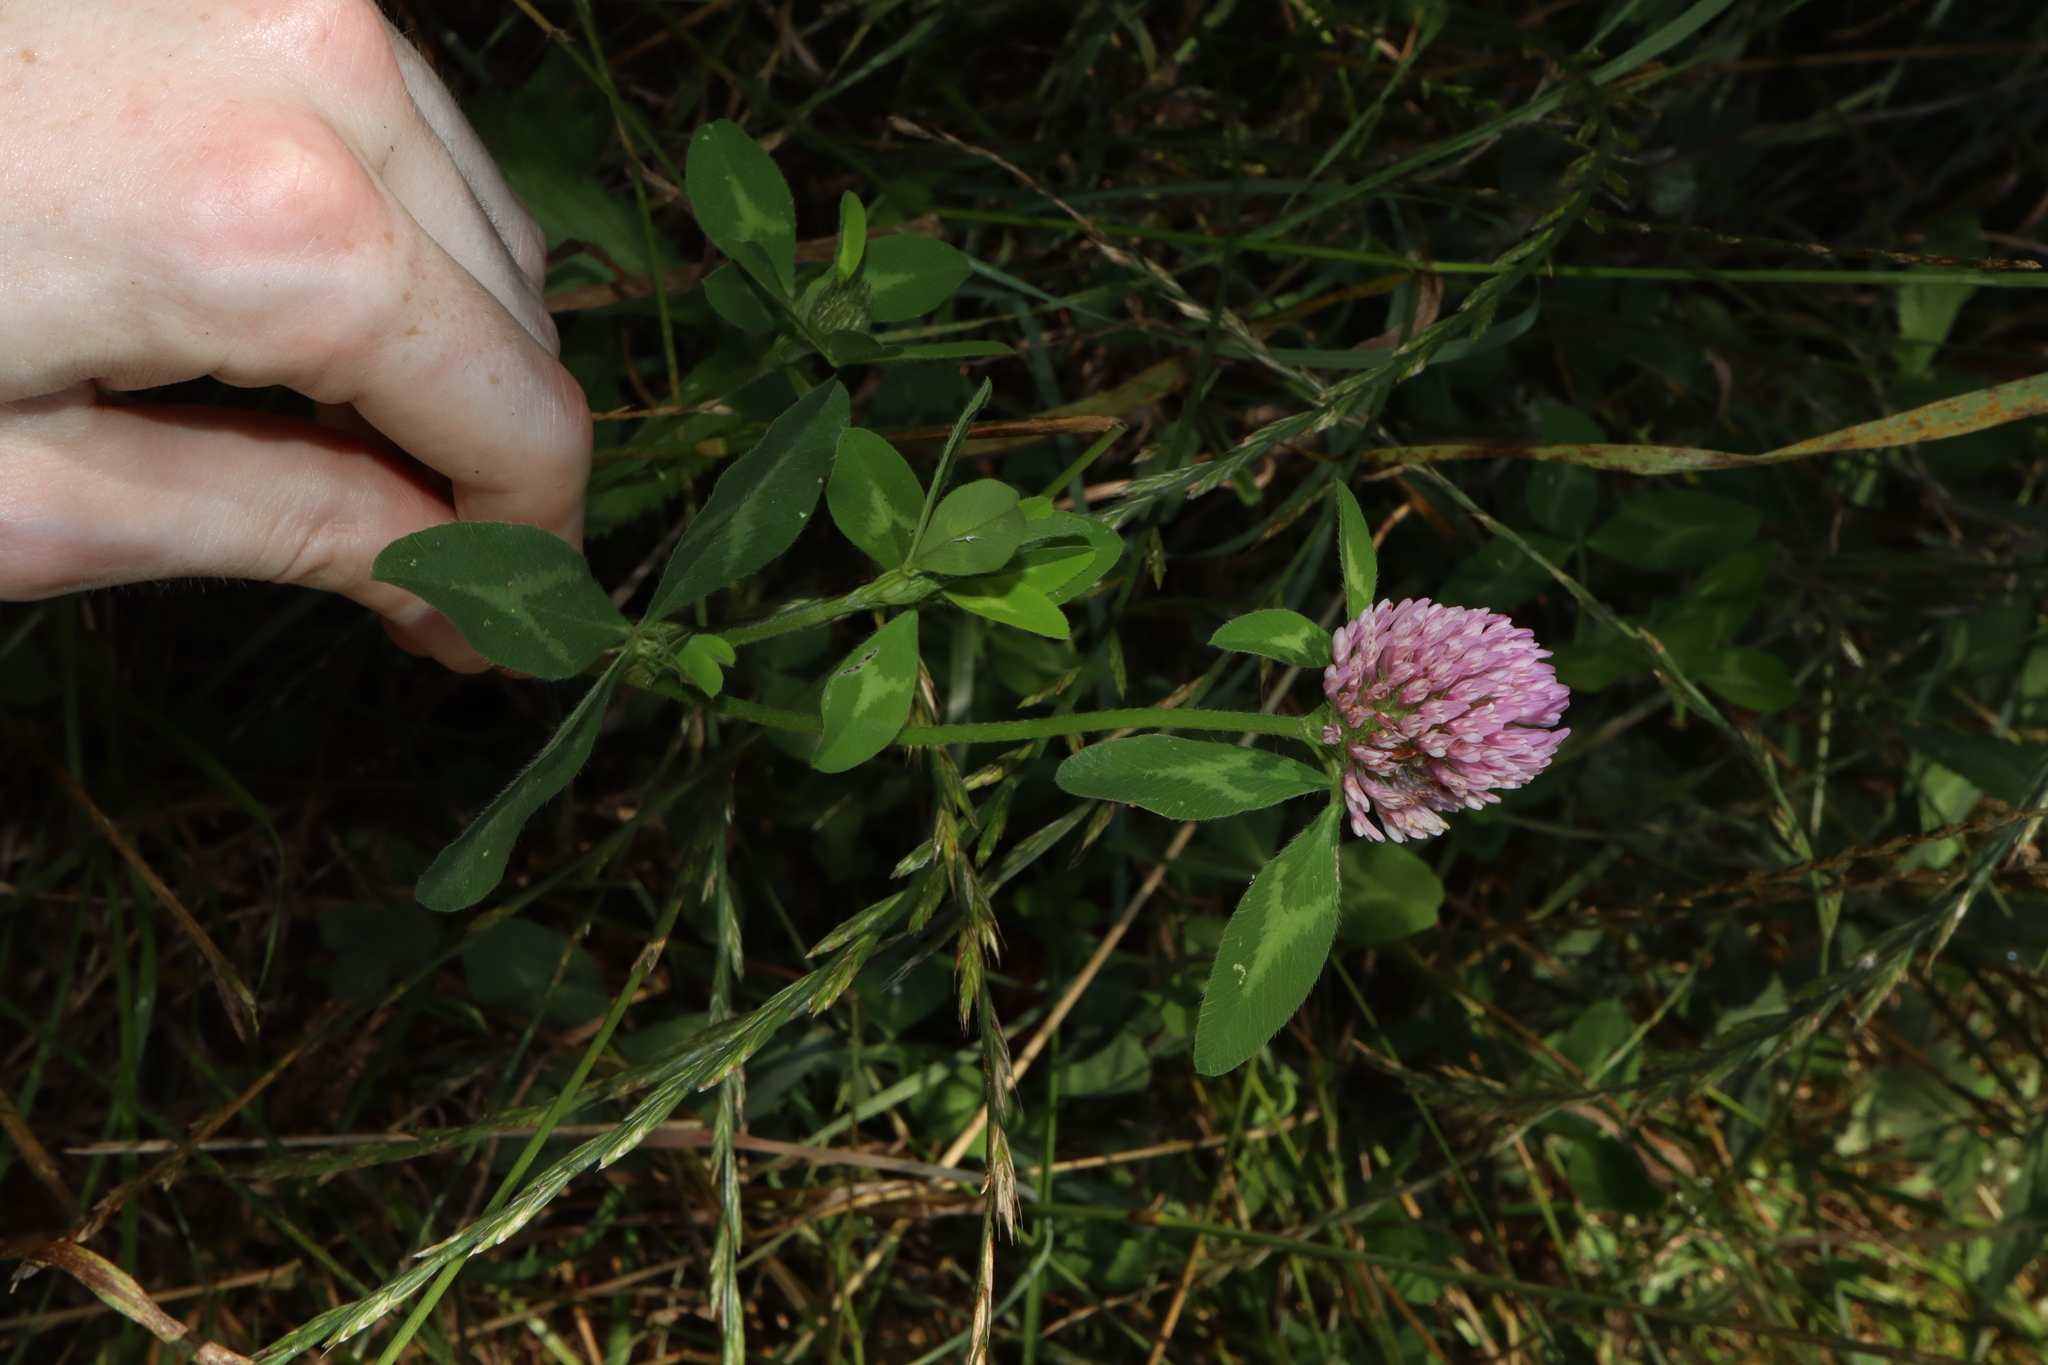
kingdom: Plantae
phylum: Tracheophyta
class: Magnoliopsida
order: Fabales
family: Fabaceae
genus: Trifolium
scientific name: Trifolium pratense
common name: Red clover
